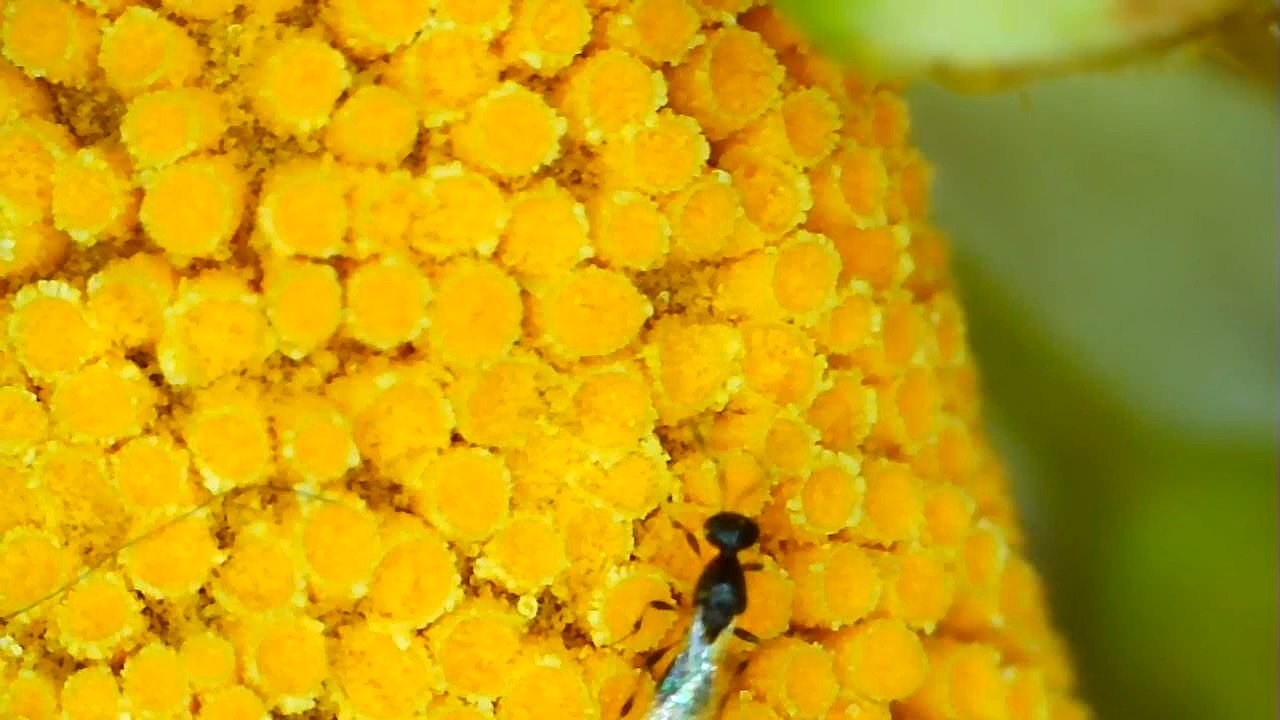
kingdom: Fungi
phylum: Basidiomycota
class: Pucciniomycetes
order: Pucciniales
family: Pucciniaceae
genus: Puccinia
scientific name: Puccinia coronata
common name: Crown rust
